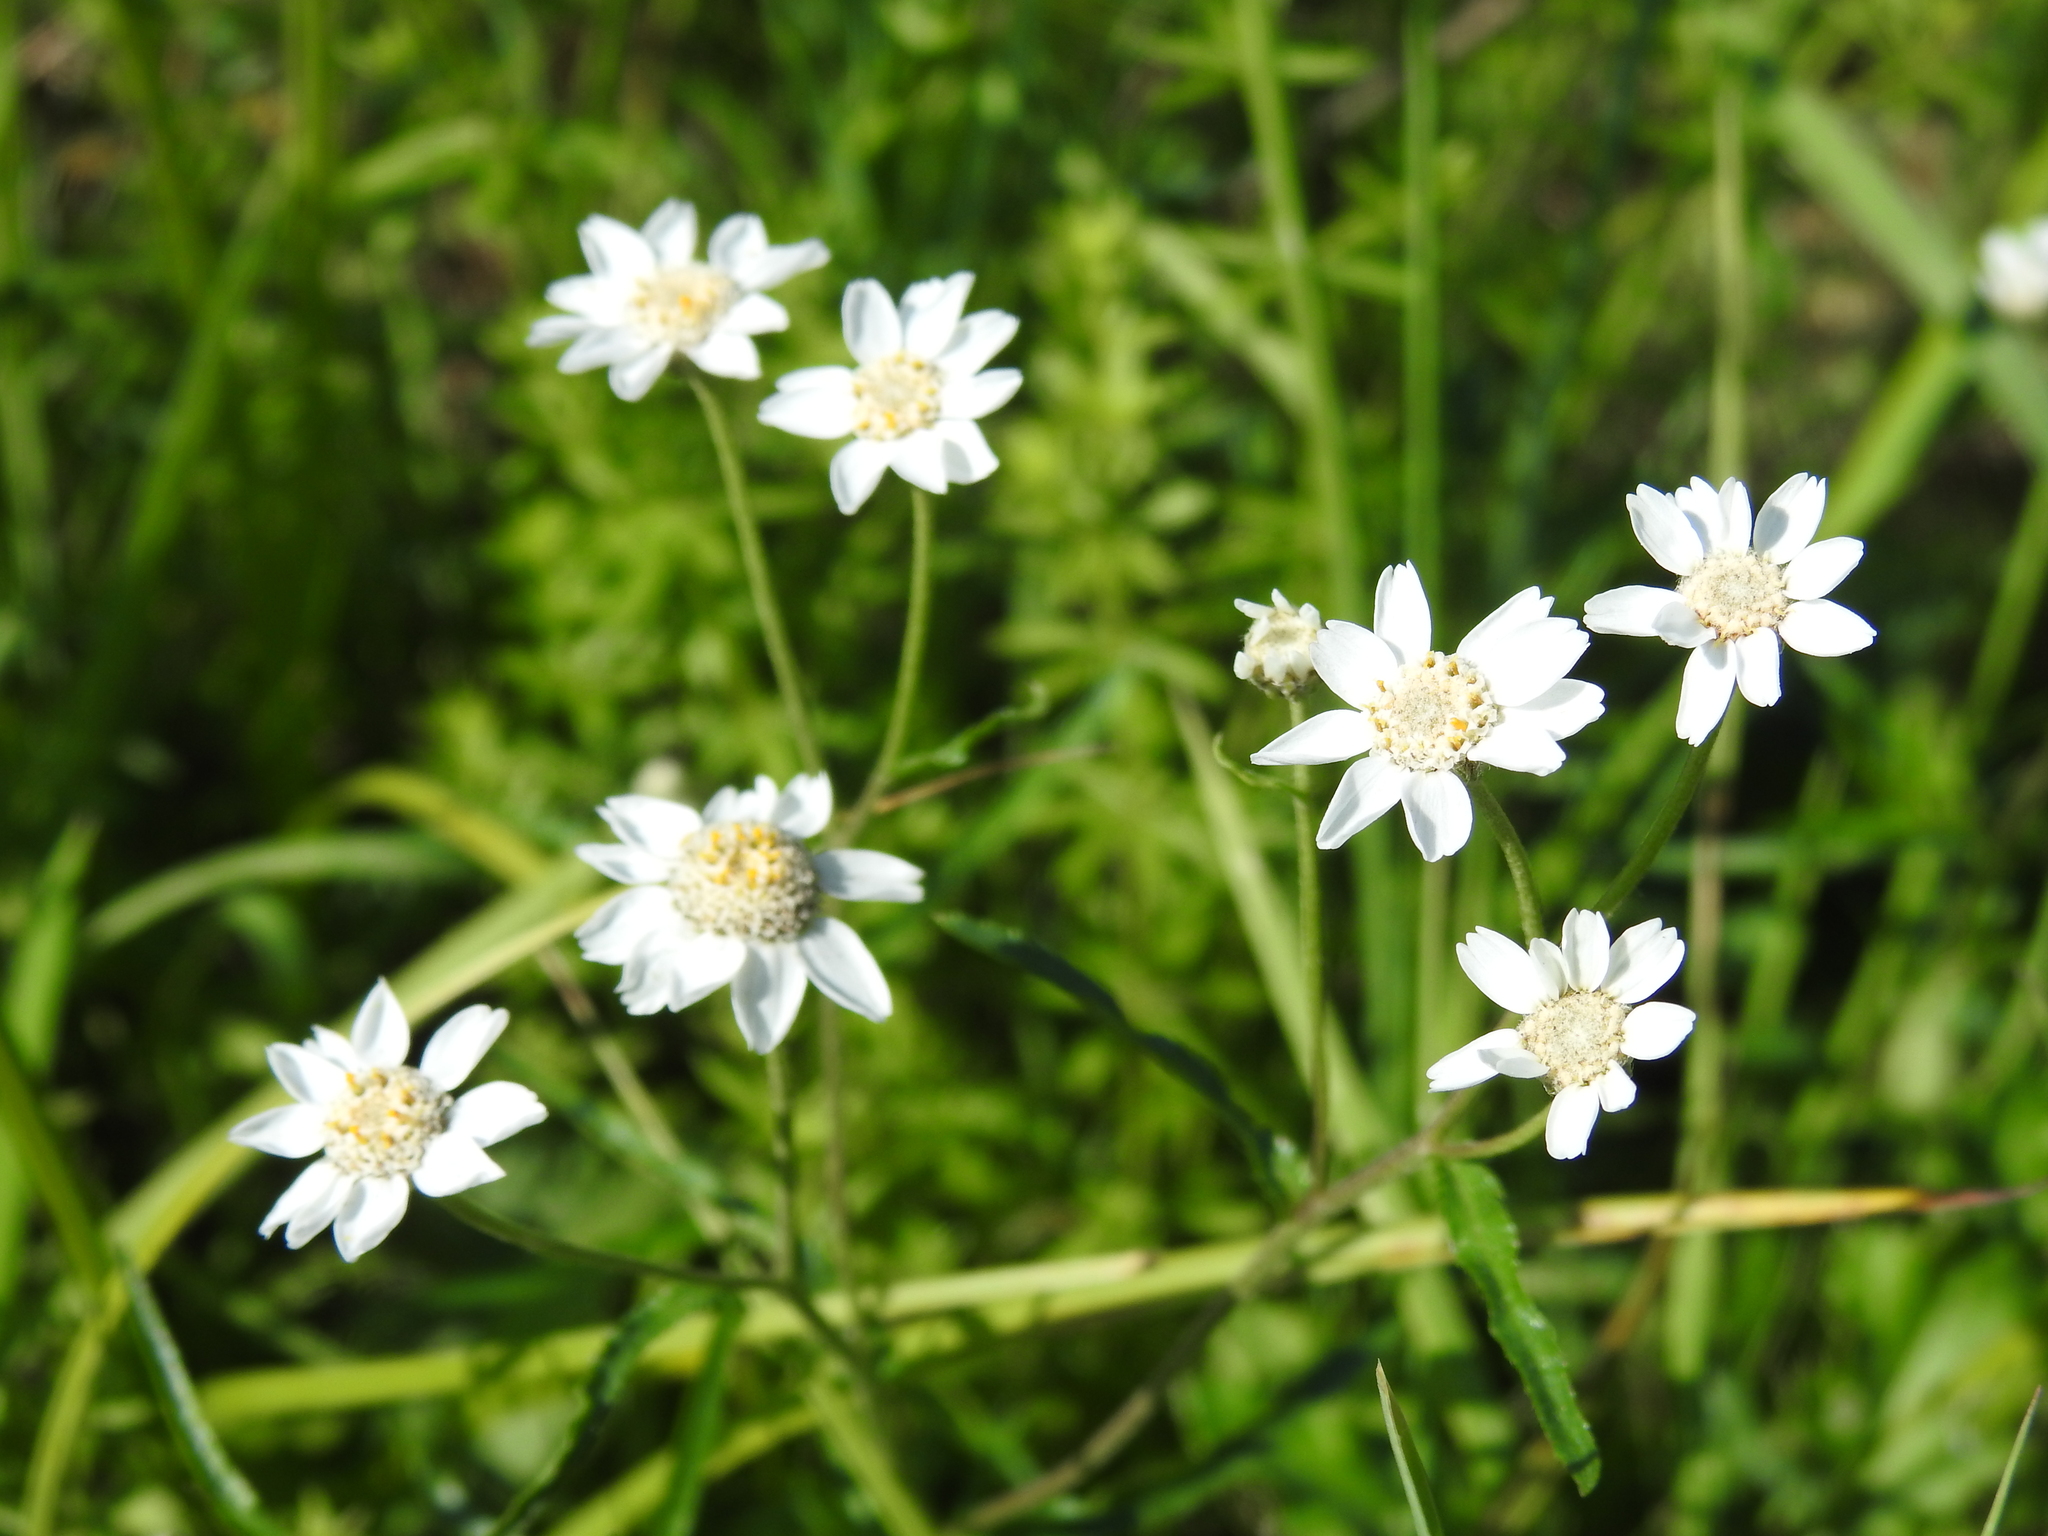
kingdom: Plantae
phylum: Tracheophyta
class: Magnoliopsida
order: Asterales
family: Asteraceae
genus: Achillea
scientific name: Achillea ptarmica
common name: Sneezeweed
